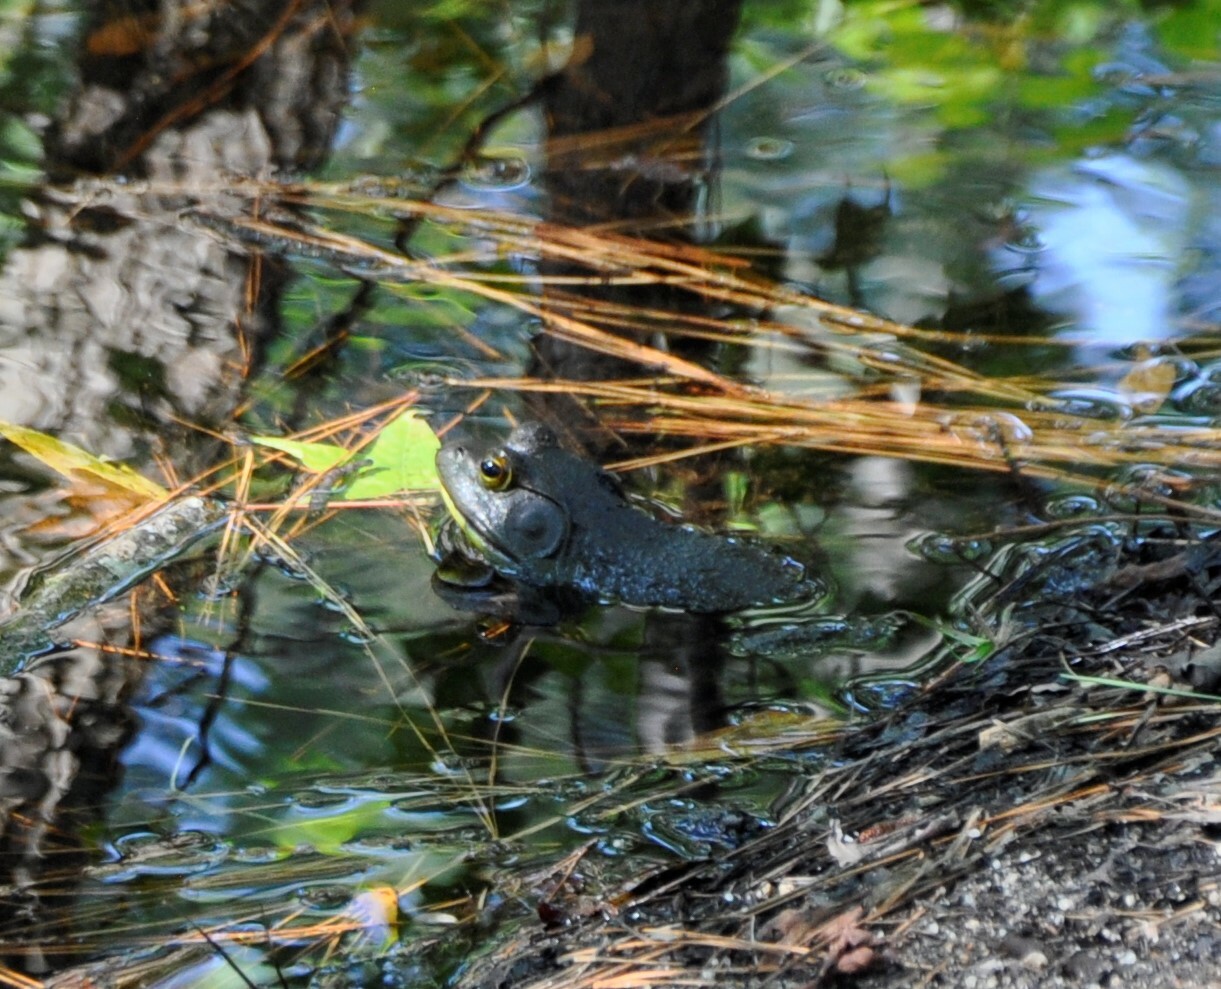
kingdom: Animalia
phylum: Chordata
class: Amphibia
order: Anura
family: Ranidae
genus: Lithobates
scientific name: Lithobates catesbeianus
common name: American bullfrog
